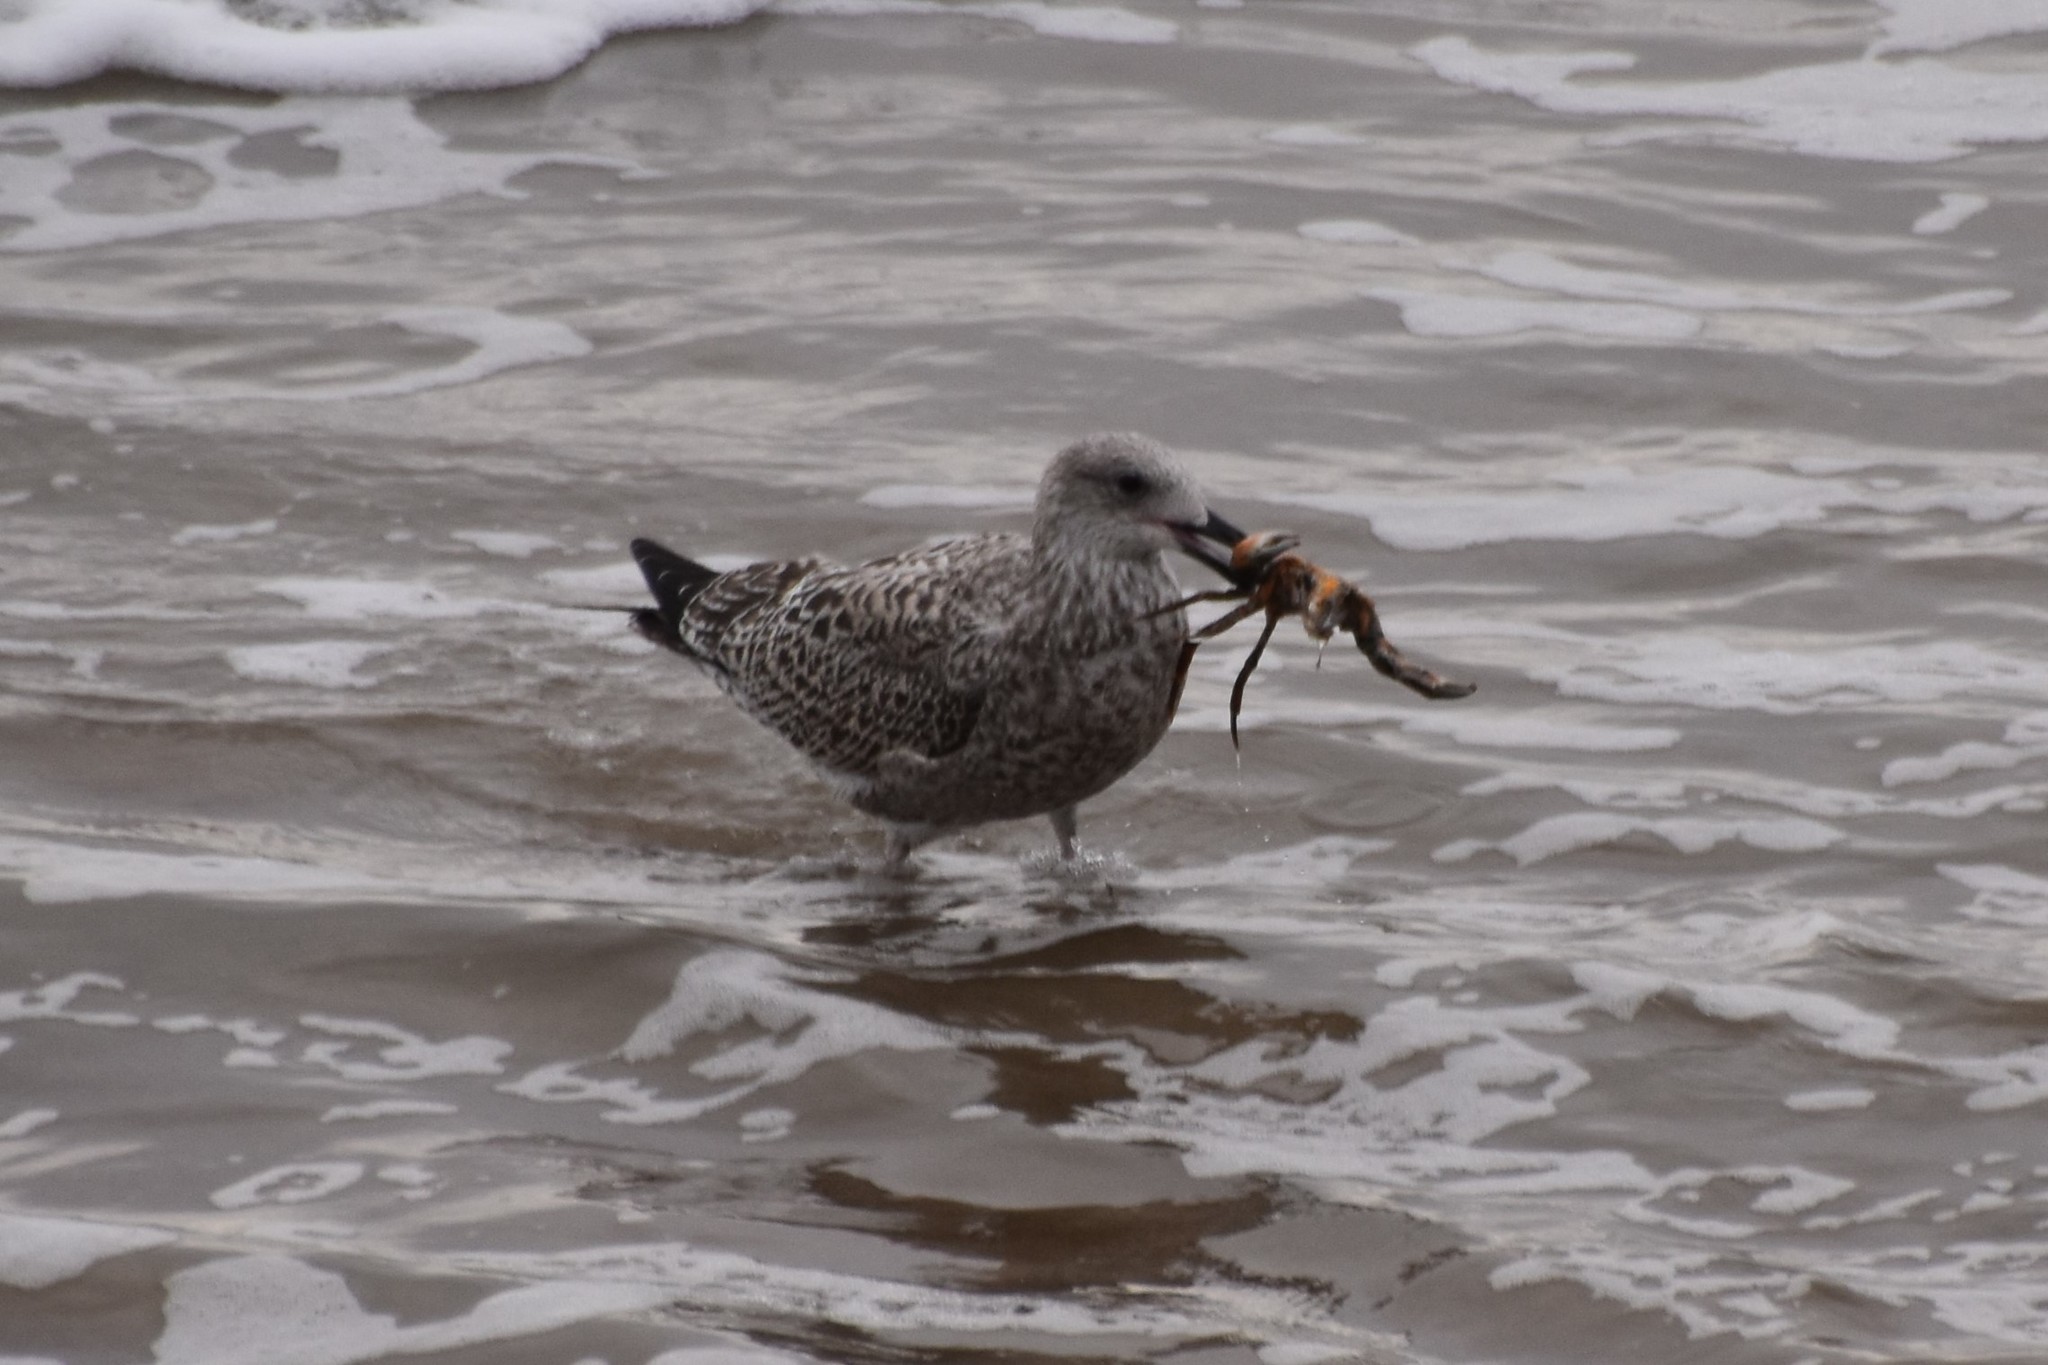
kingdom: Animalia
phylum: Chordata
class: Aves
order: Charadriiformes
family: Laridae
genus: Larus
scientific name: Larus argentatus
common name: Herring gull
